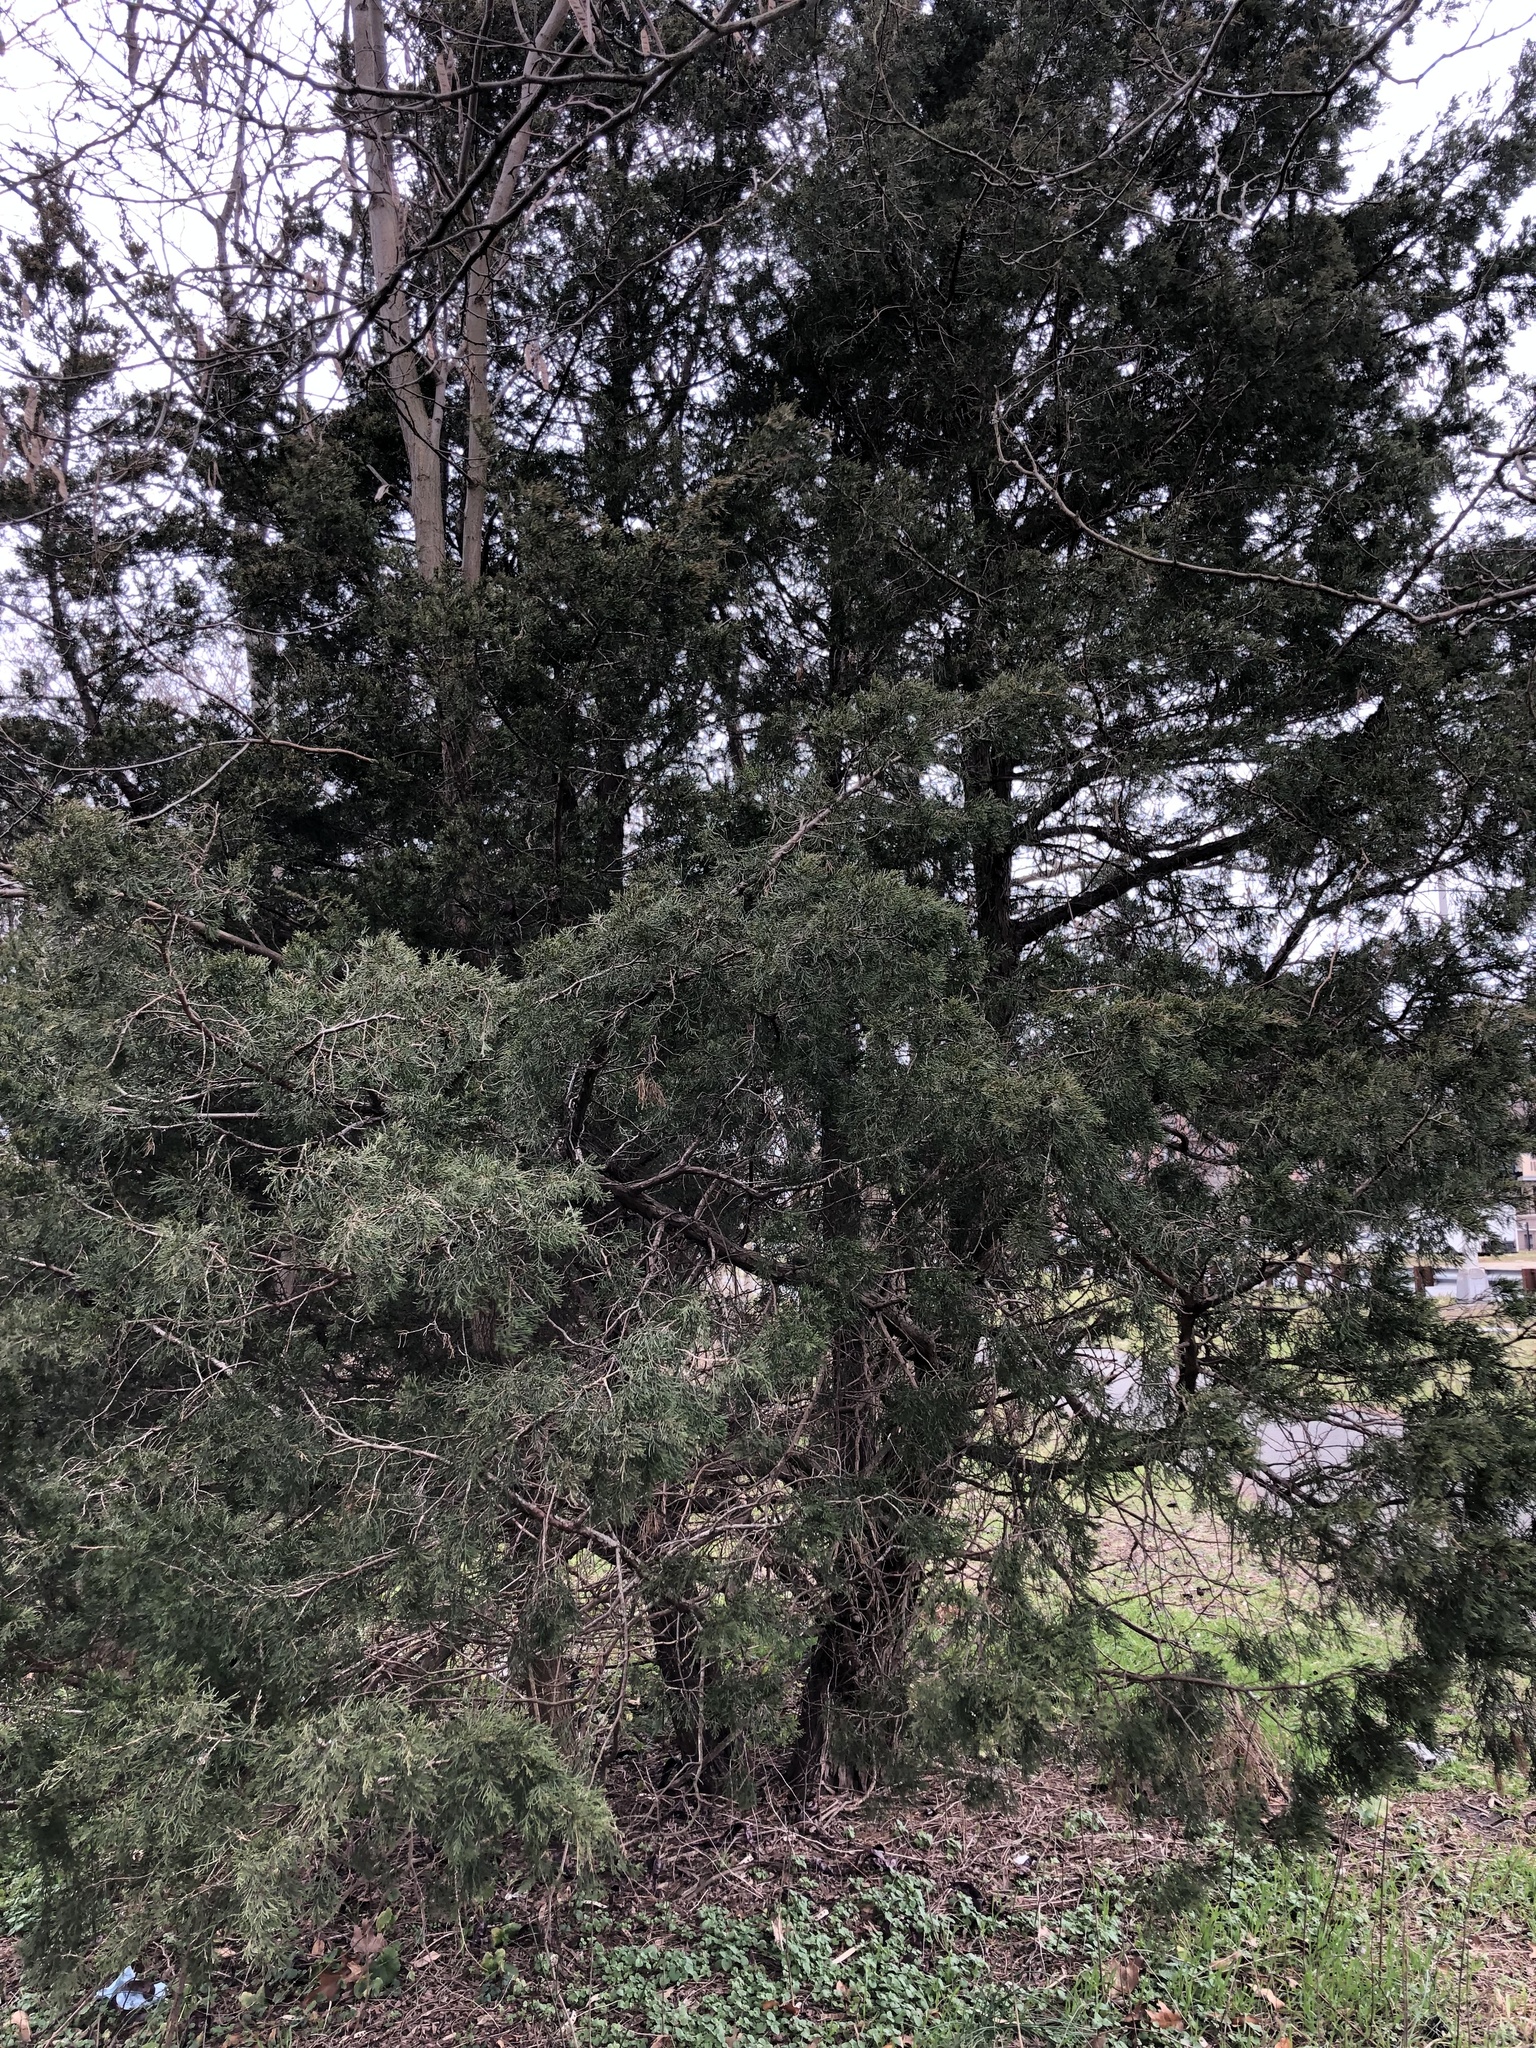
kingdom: Plantae
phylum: Tracheophyta
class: Pinopsida
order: Pinales
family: Cupressaceae
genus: Juniperus
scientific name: Juniperus virginiana
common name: Red juniper
